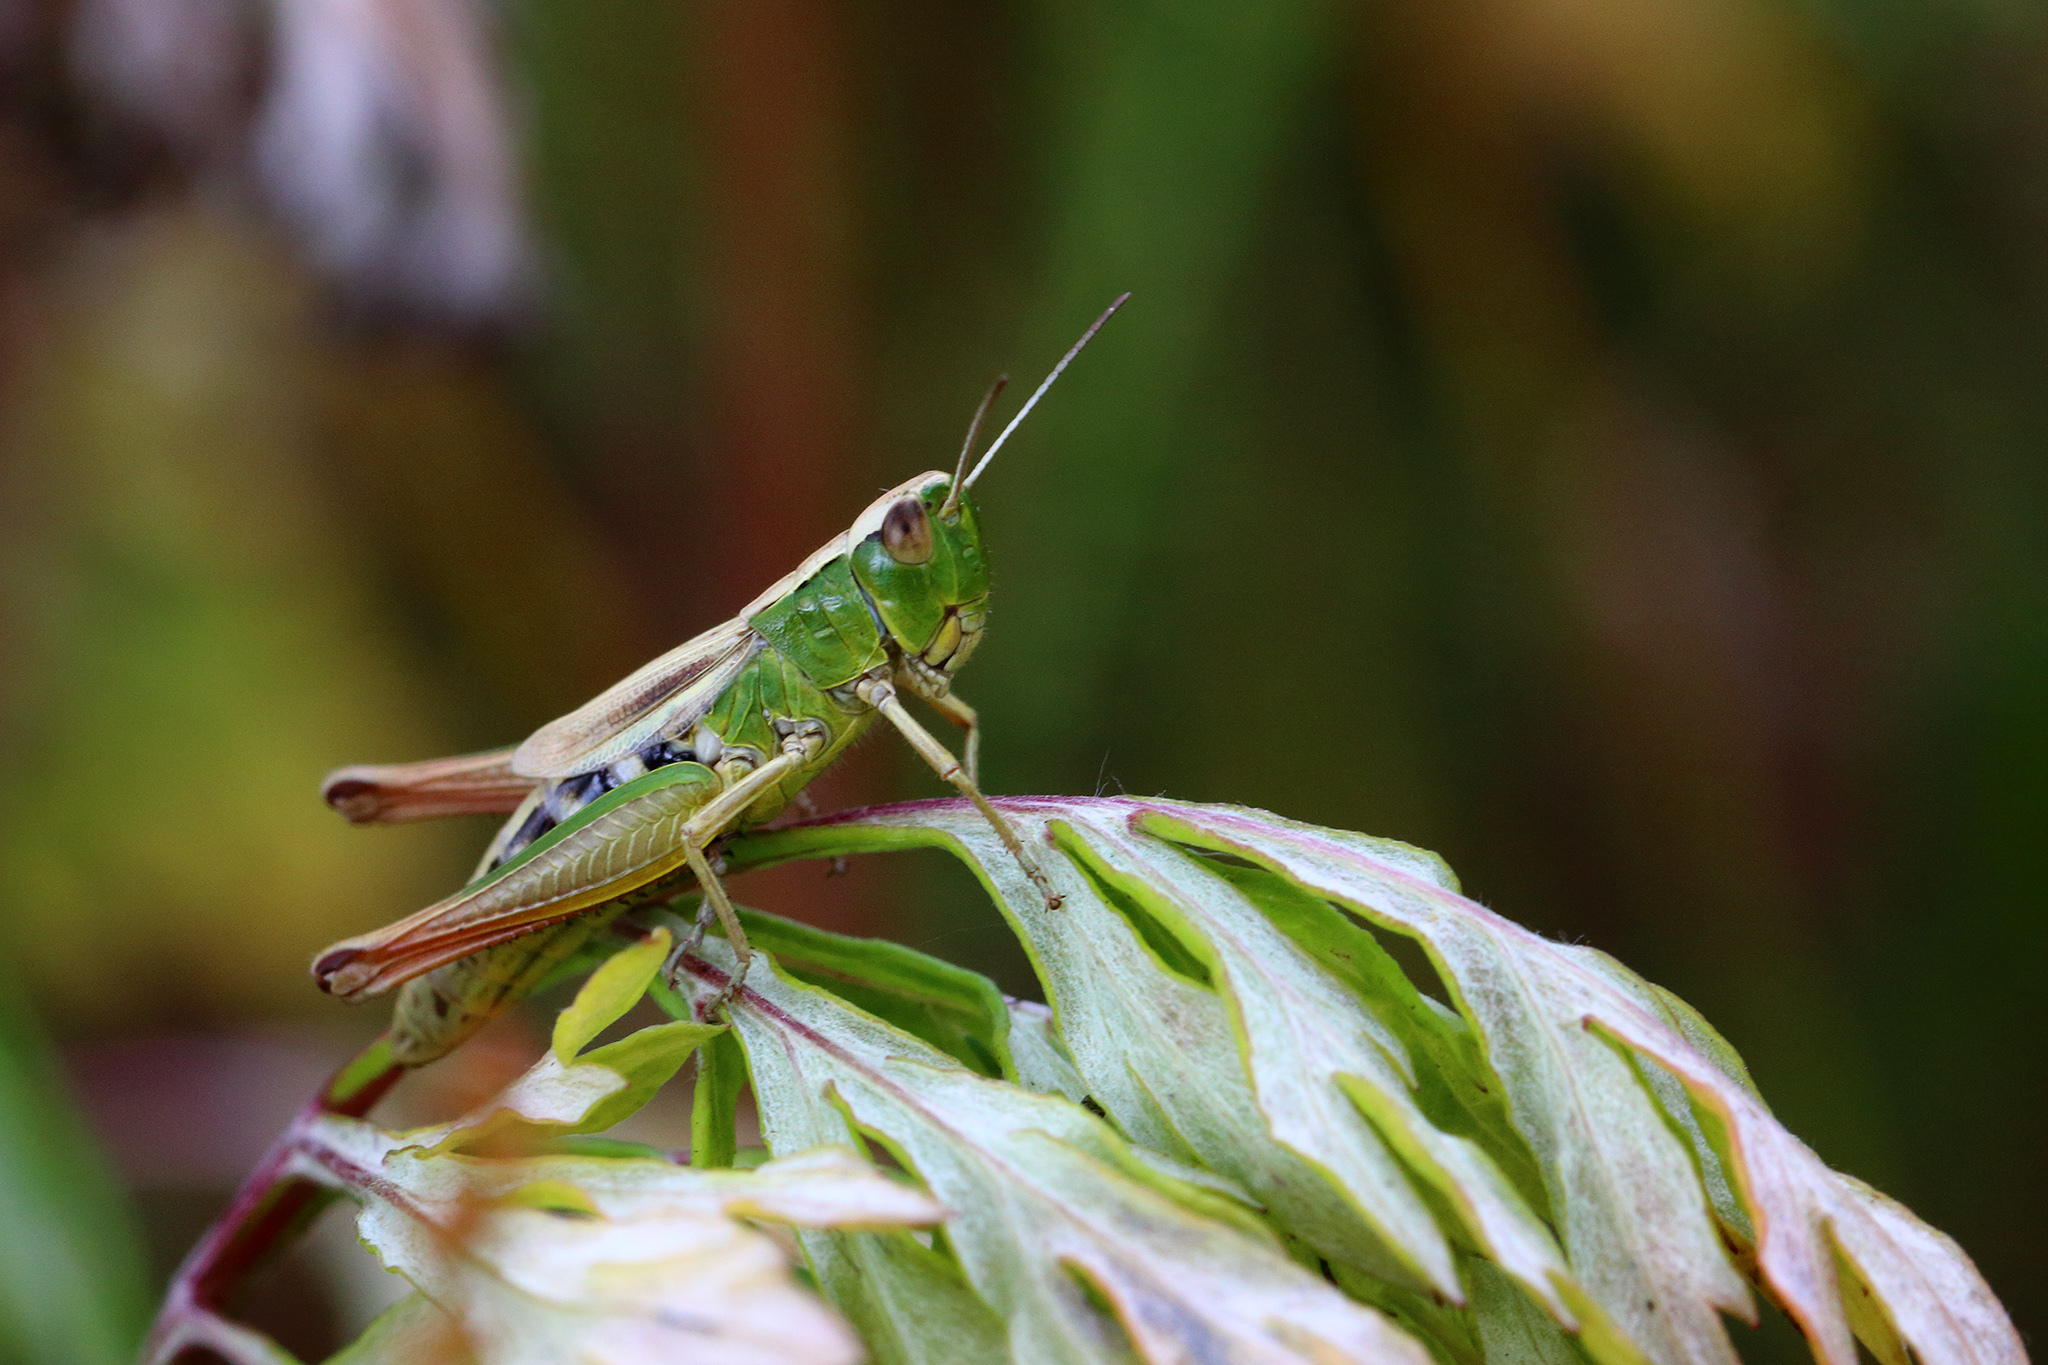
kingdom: Animalia
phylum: Arthropoda
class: Insecta
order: Orthoptera
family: Acrididae
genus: Pseudochorthippus
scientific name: Pseudochorthippus parallelus
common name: Meadow grasshopper
